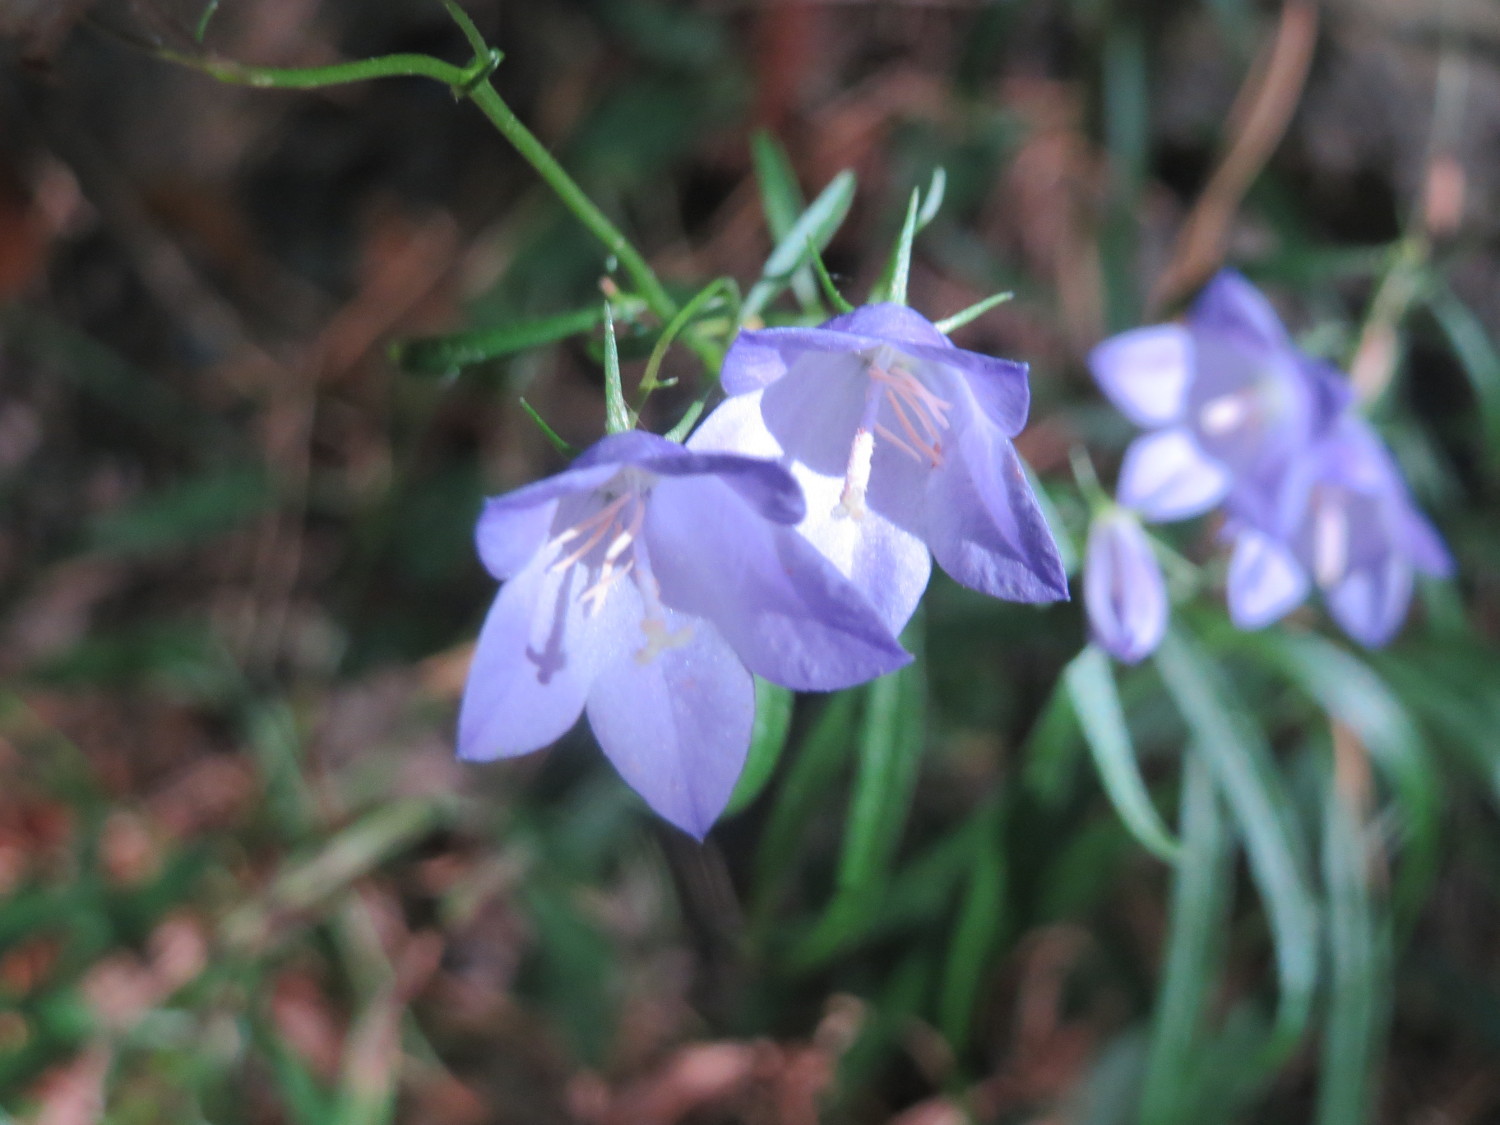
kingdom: Plantae
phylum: Tracheophyta
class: Magnoliopsida
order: Asterales
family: Campanulaceae
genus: Campanula
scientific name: Campanula rotundifolia
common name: Harebell
